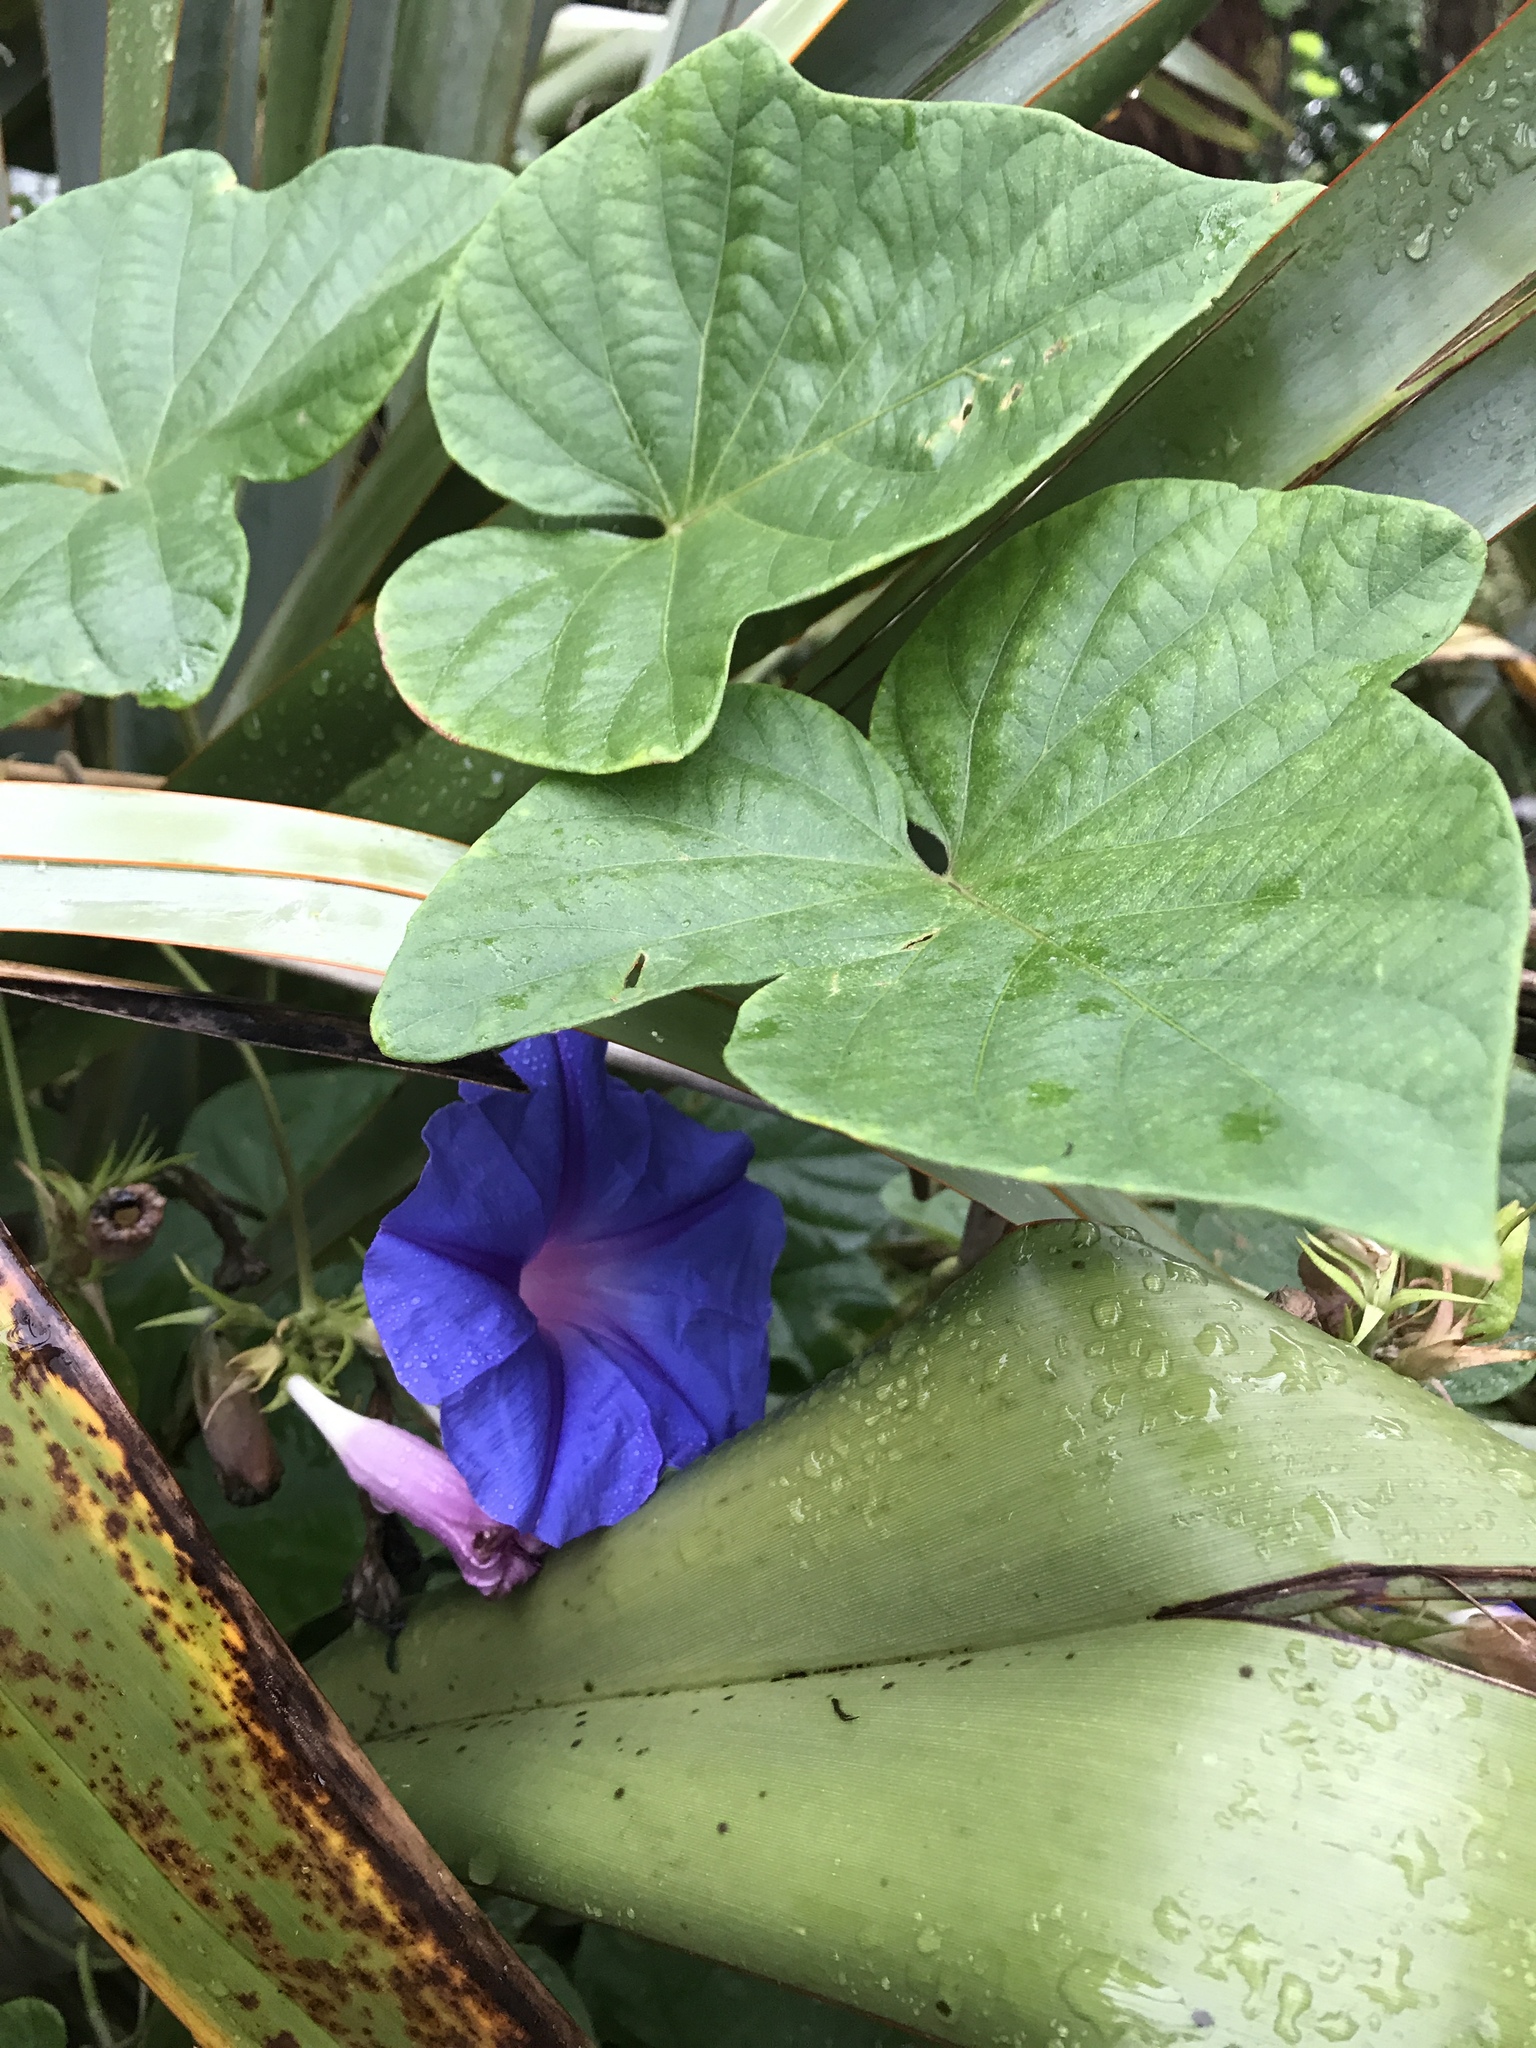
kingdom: Plantae
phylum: Tracheophyta
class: Magnoliopsida
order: Solanales
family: Convolvulaceae
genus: Ipomoea
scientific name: Ipomoea indica
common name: Blue dawnflower
